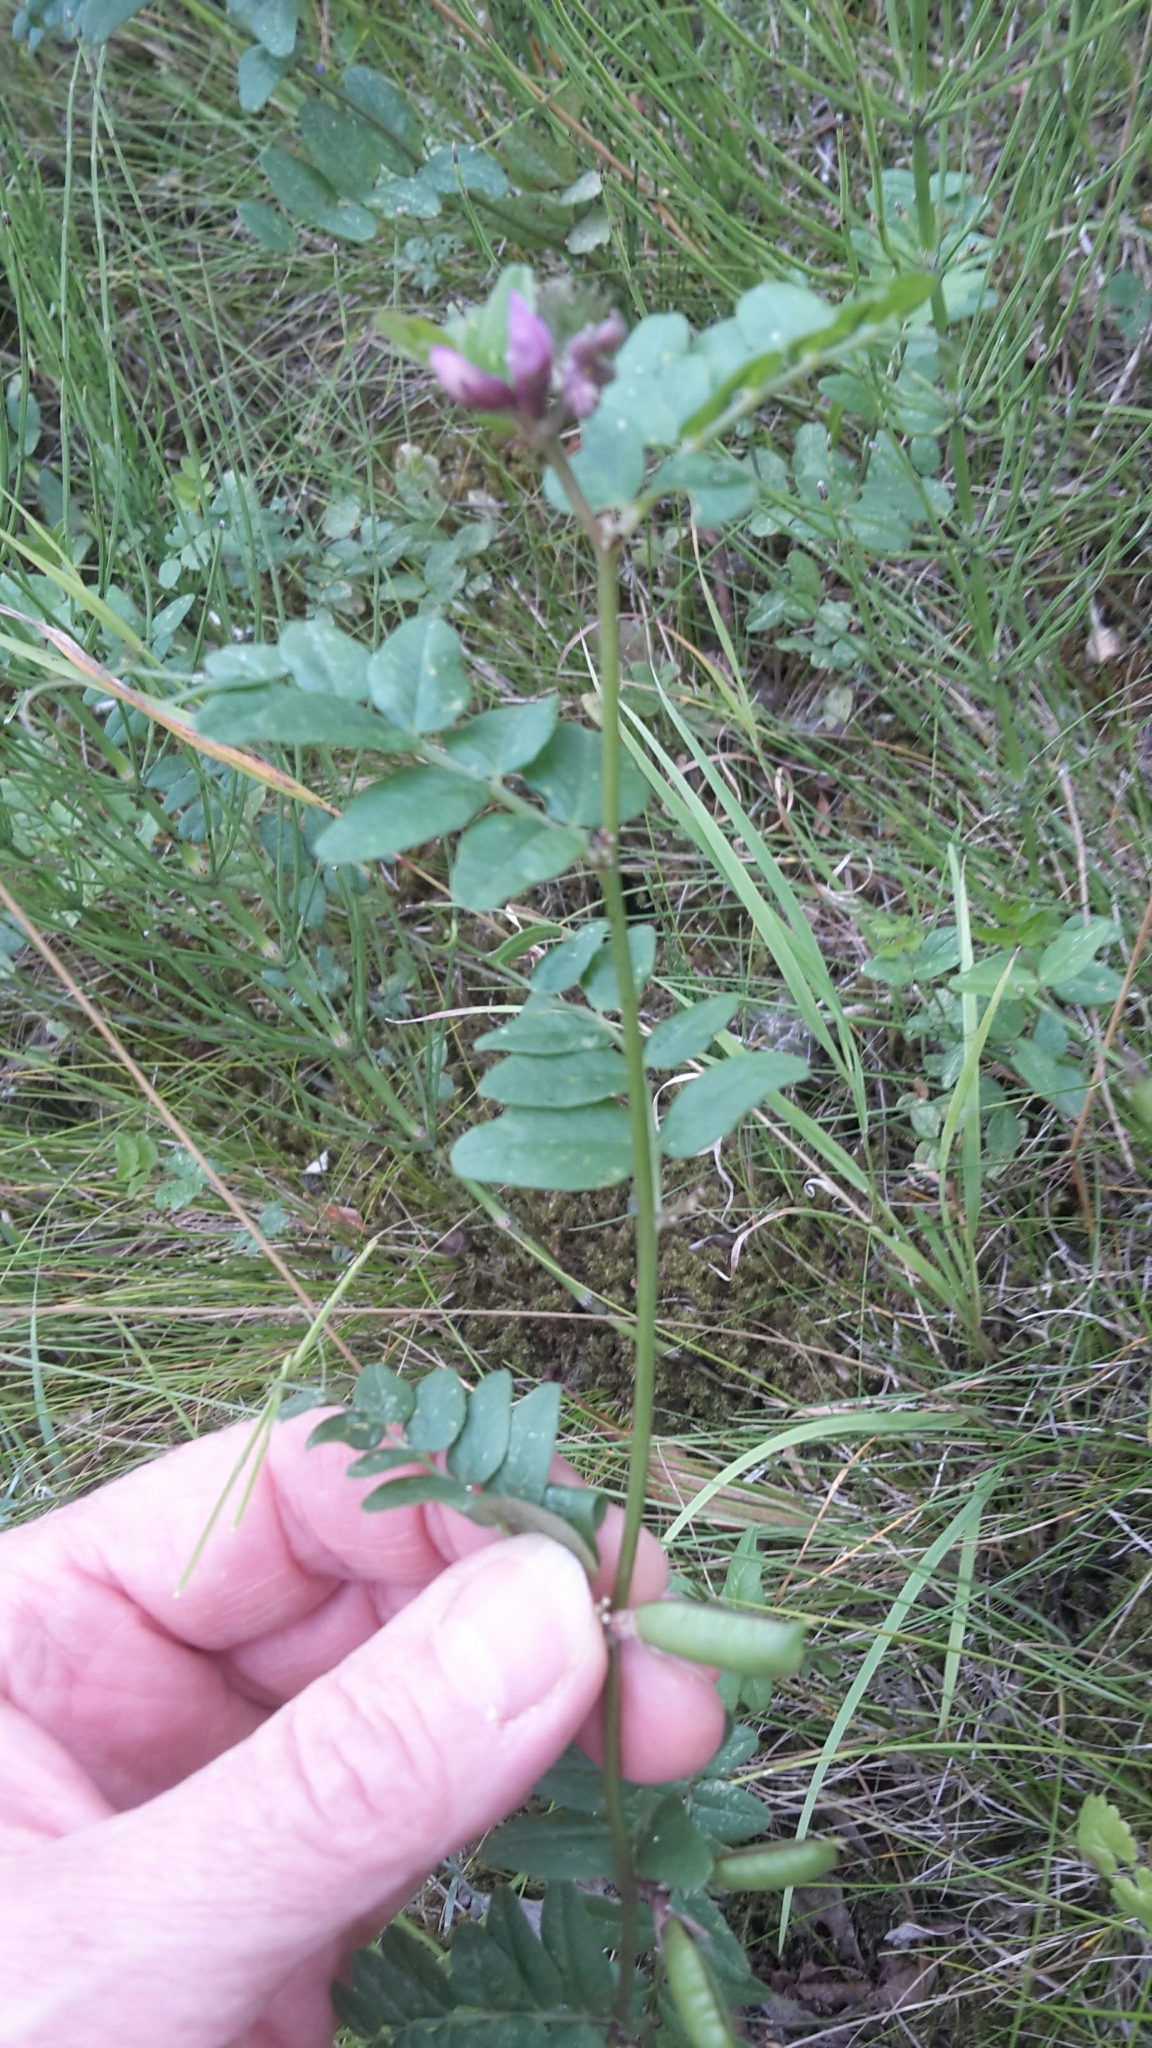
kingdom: Plantae
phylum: Tracheophyta
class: Magnoliopsida
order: Fabales
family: Fabaceae
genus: Vicia
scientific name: Vicia sepium
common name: Bush vetch
